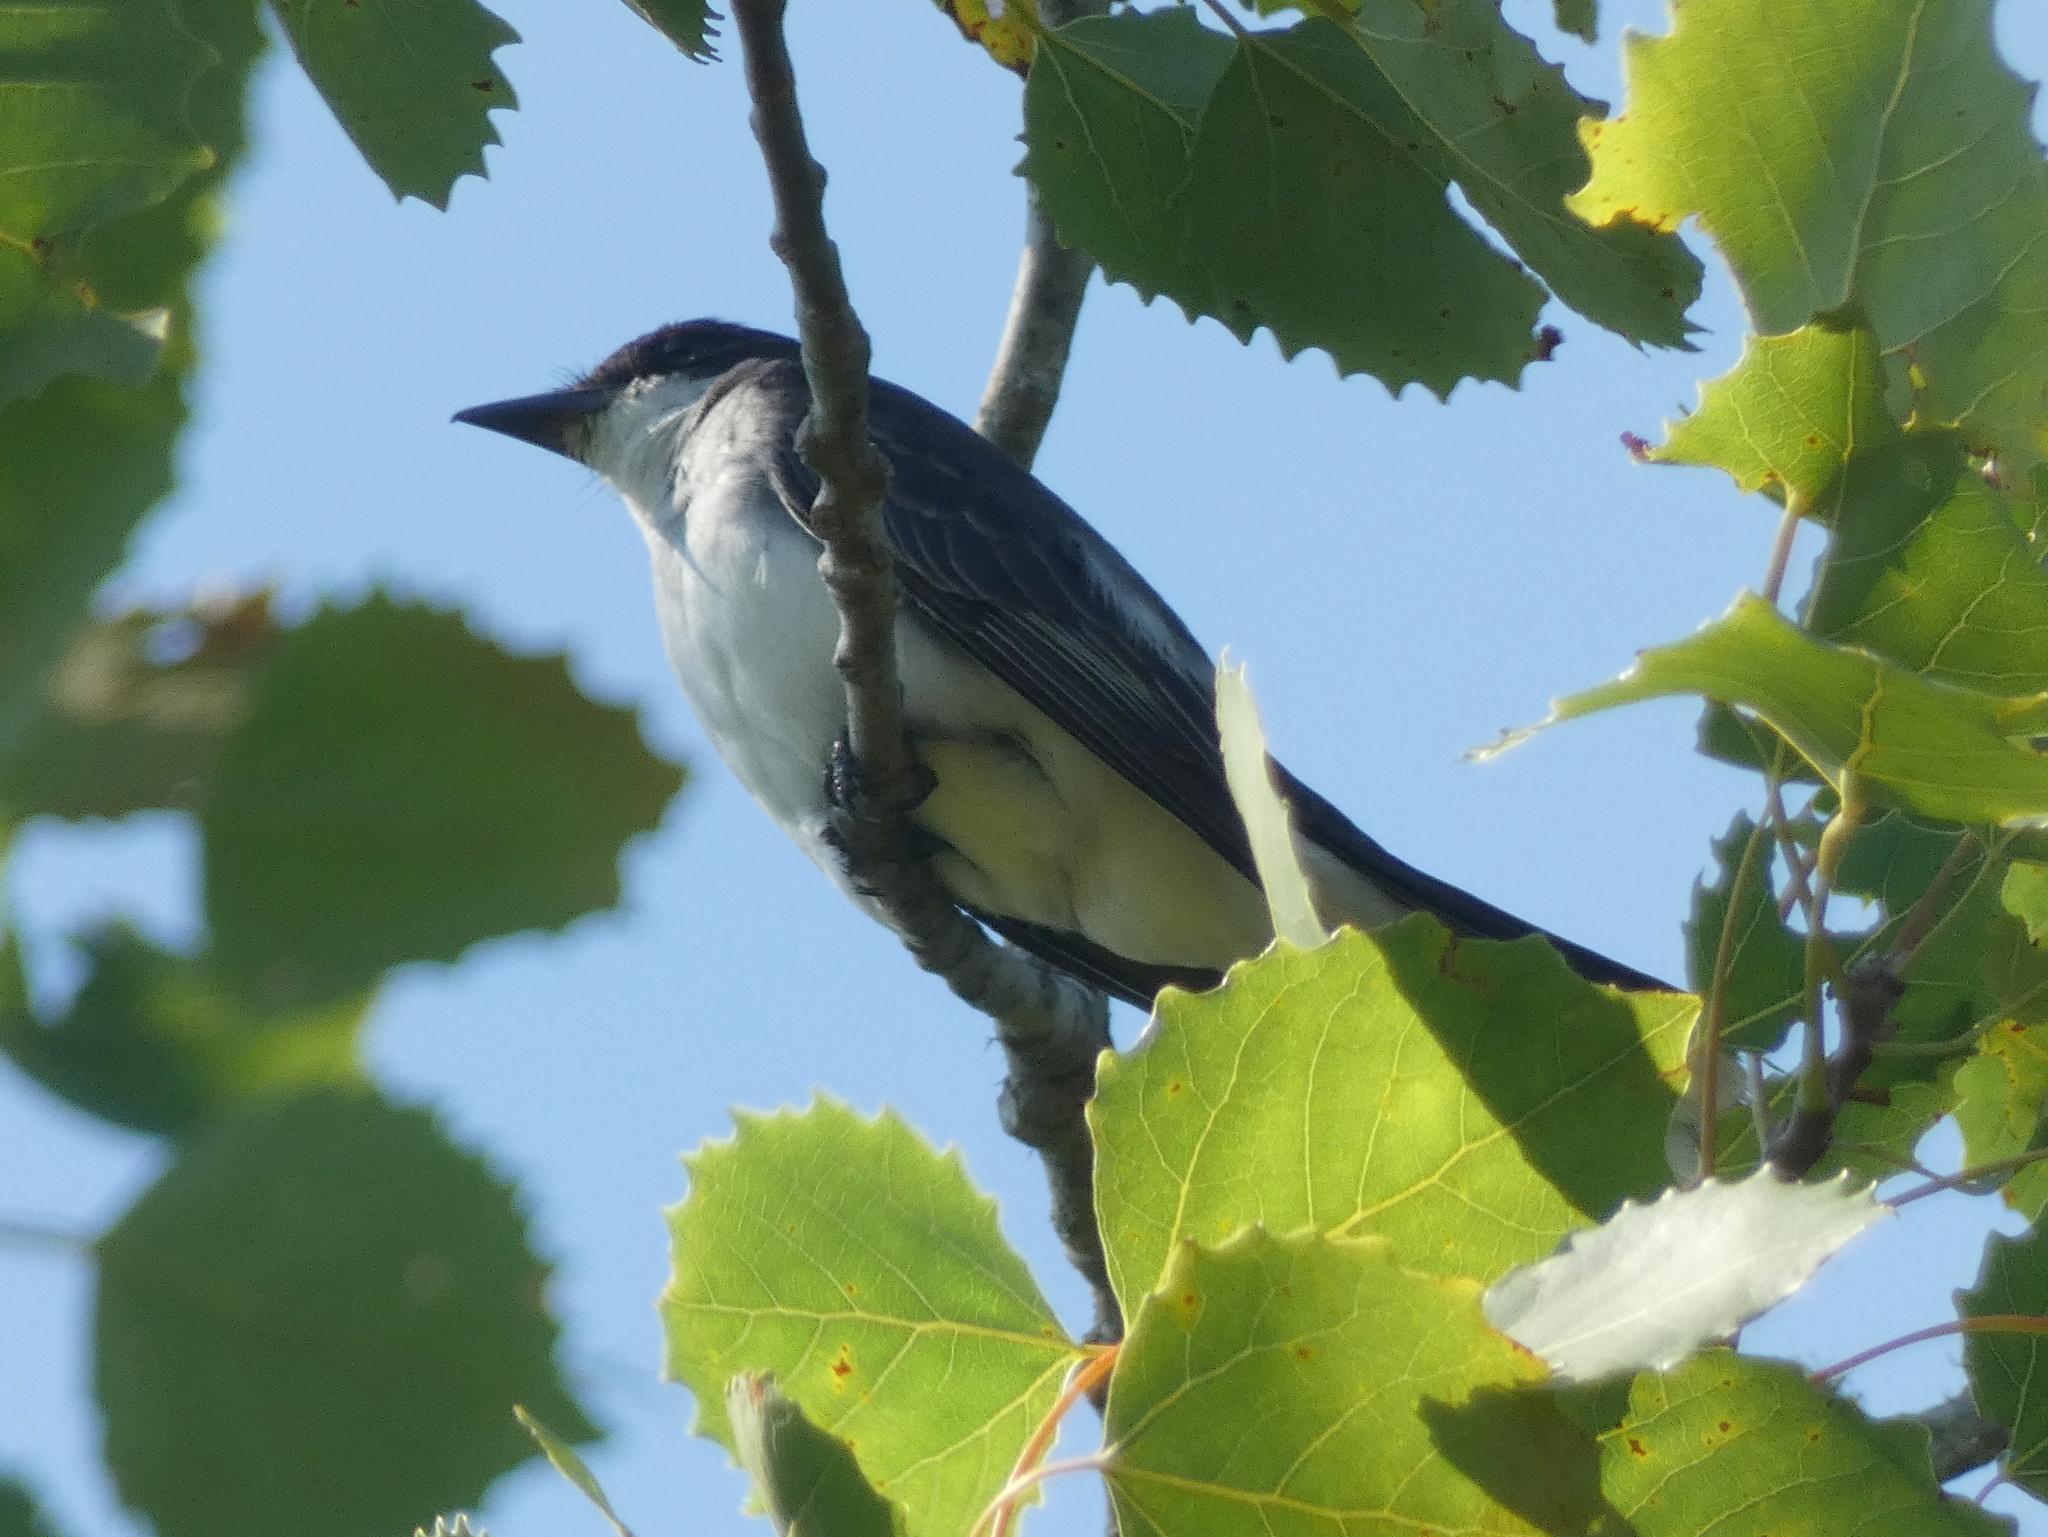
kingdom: Animalia
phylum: Chordata
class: Aves
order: Passeriformes
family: Tyrannidae
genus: Tyrannus
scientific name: Tyrannus tyrannus
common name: Eastern kingbird
